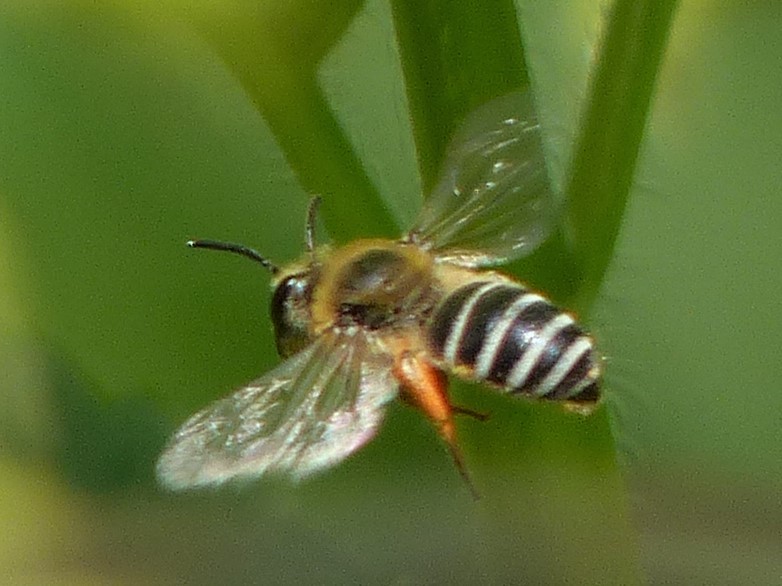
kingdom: Animalia
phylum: Arthropoda
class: Insecta
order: Hymenoptera
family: Colletidae
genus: Colletes
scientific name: Colletes aestivalis
